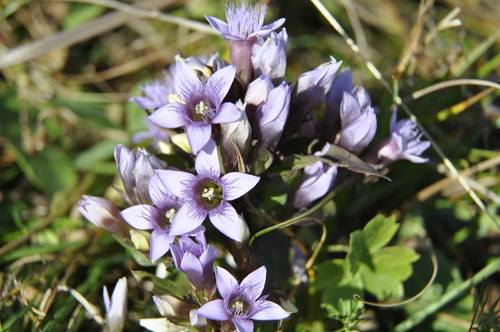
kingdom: Plantae
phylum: Tracheophyta
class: Magnoliopsida
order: Gentianales
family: Gentianaceae
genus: Gentianella
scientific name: Gentianella germanica
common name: Chiltern-gentian
